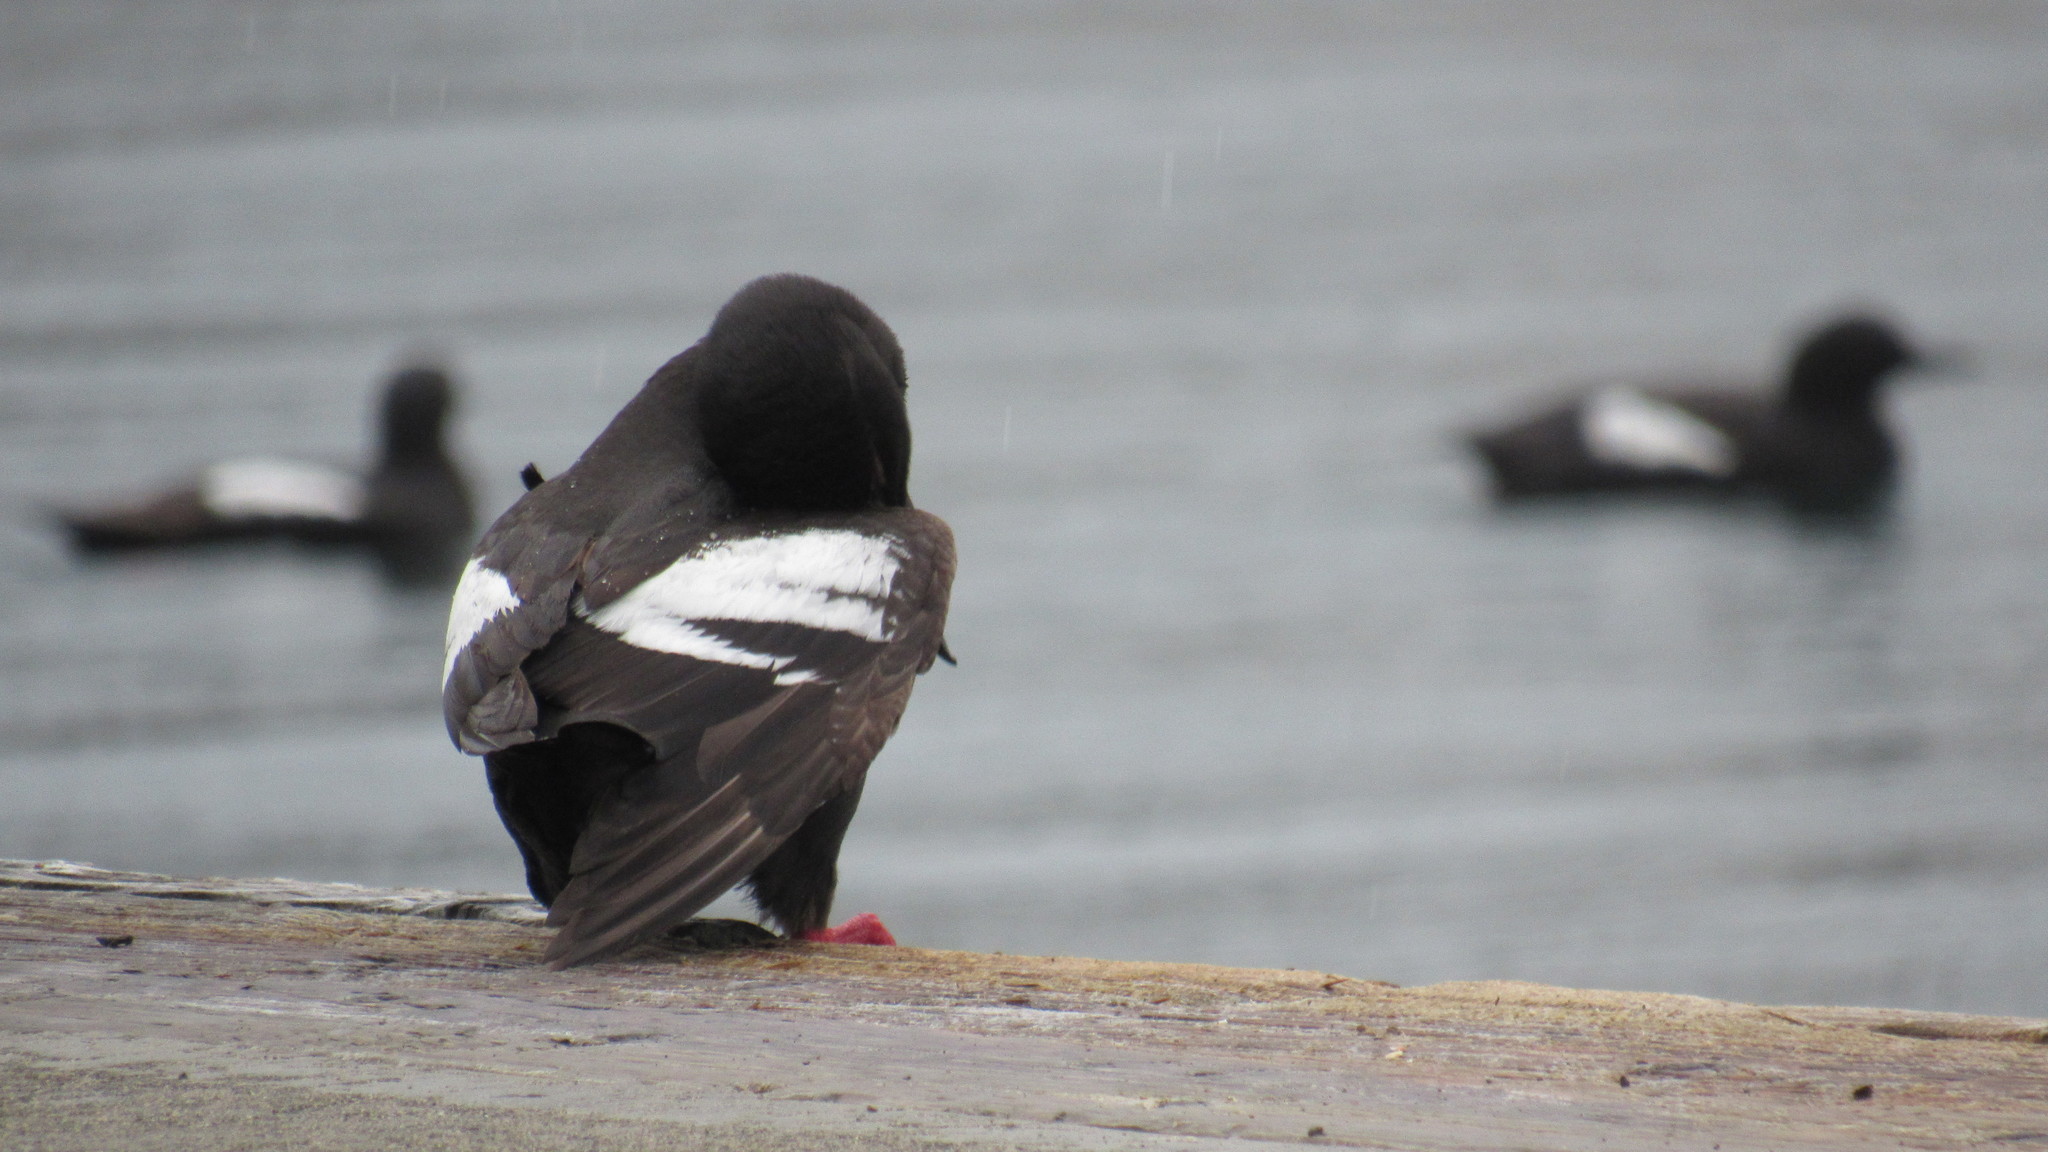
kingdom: Animalia
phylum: Chordata
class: Aves
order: Charadriiformes
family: Alcidae
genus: Cepphus
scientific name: Cepphus columba
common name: Pigeon guillemot
